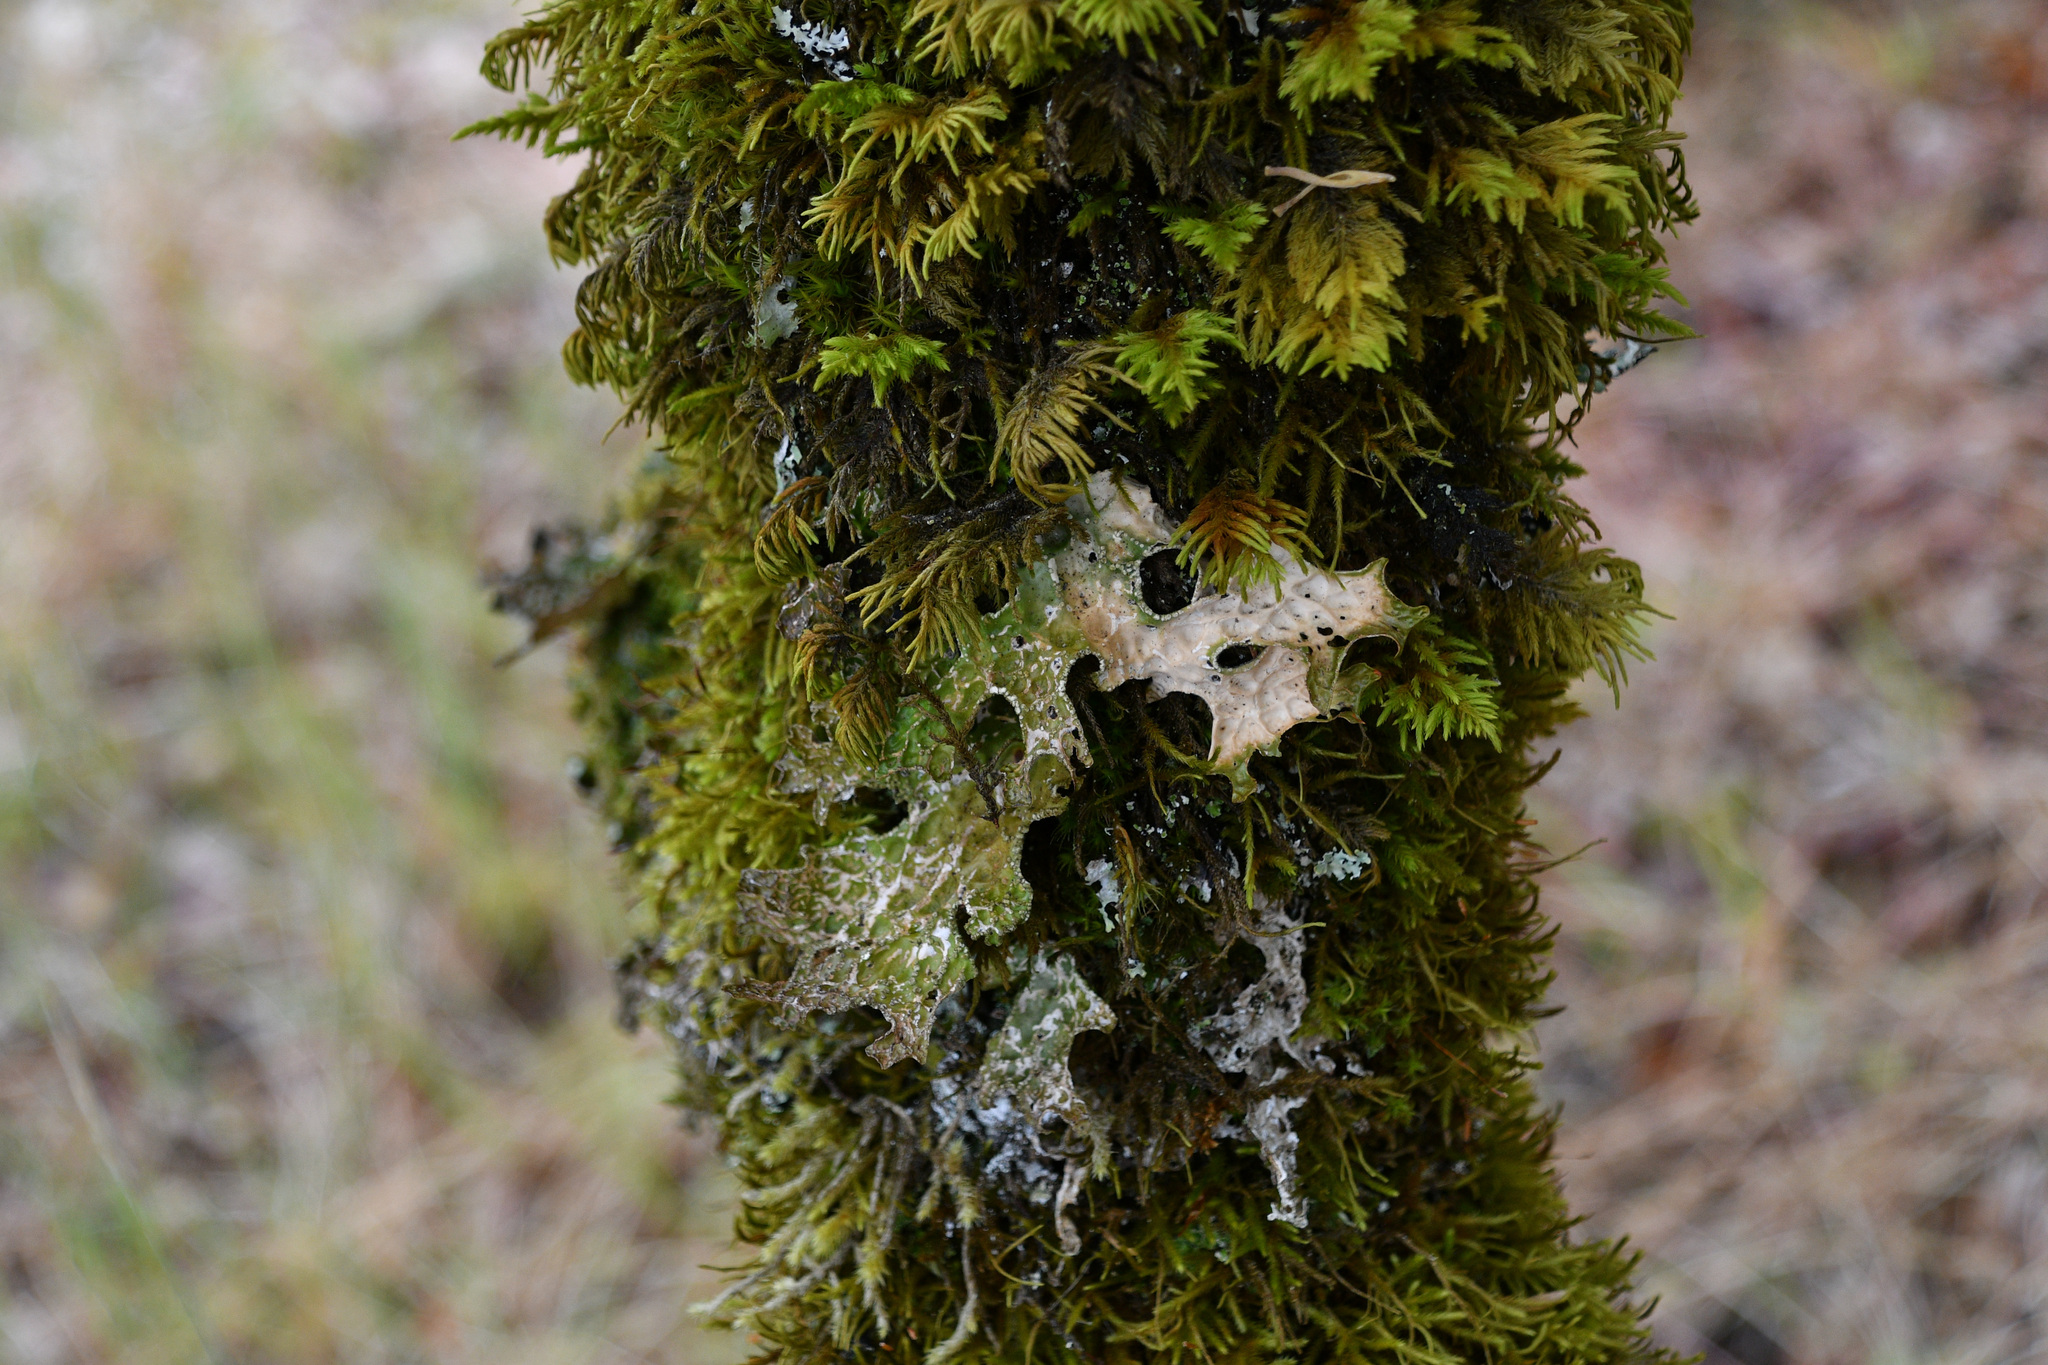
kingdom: Fungi
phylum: Ascomycota
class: Lecanoromycetes
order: Peltigerales
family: Lobariaceae
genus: Lobaria
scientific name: Lobaria pulmonaria
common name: Lungwort
